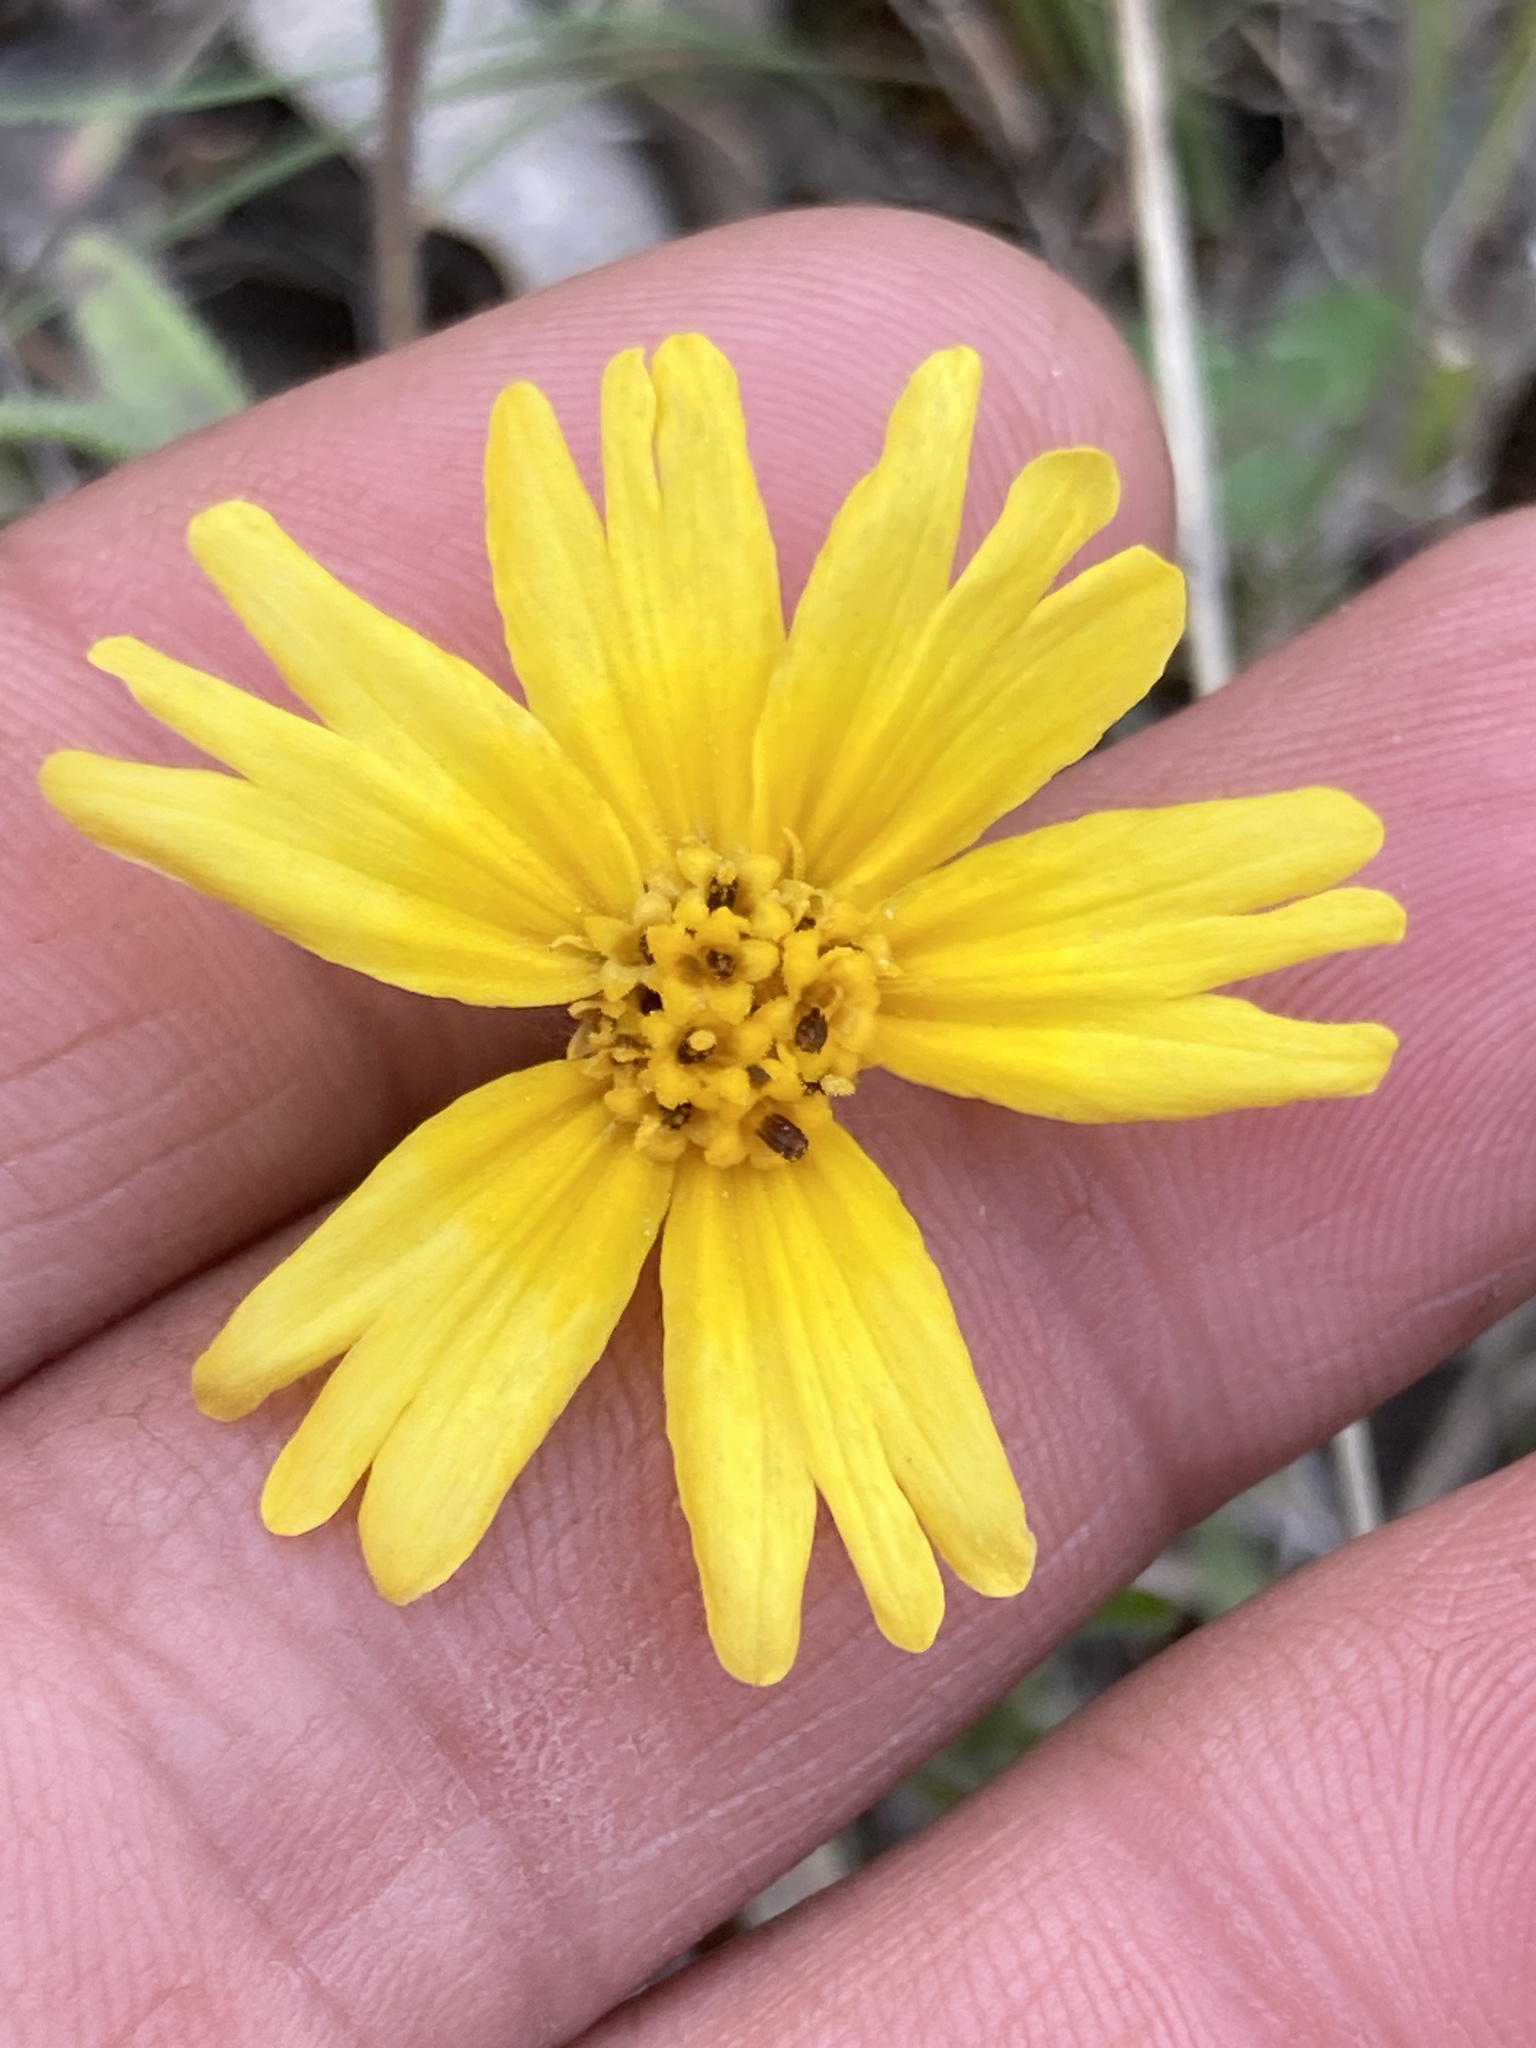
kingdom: Plantae
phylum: Tracheophyta
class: Magnoliopsida
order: Asterales
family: Asteraceae
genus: Layia
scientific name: Layia pentachaeta
